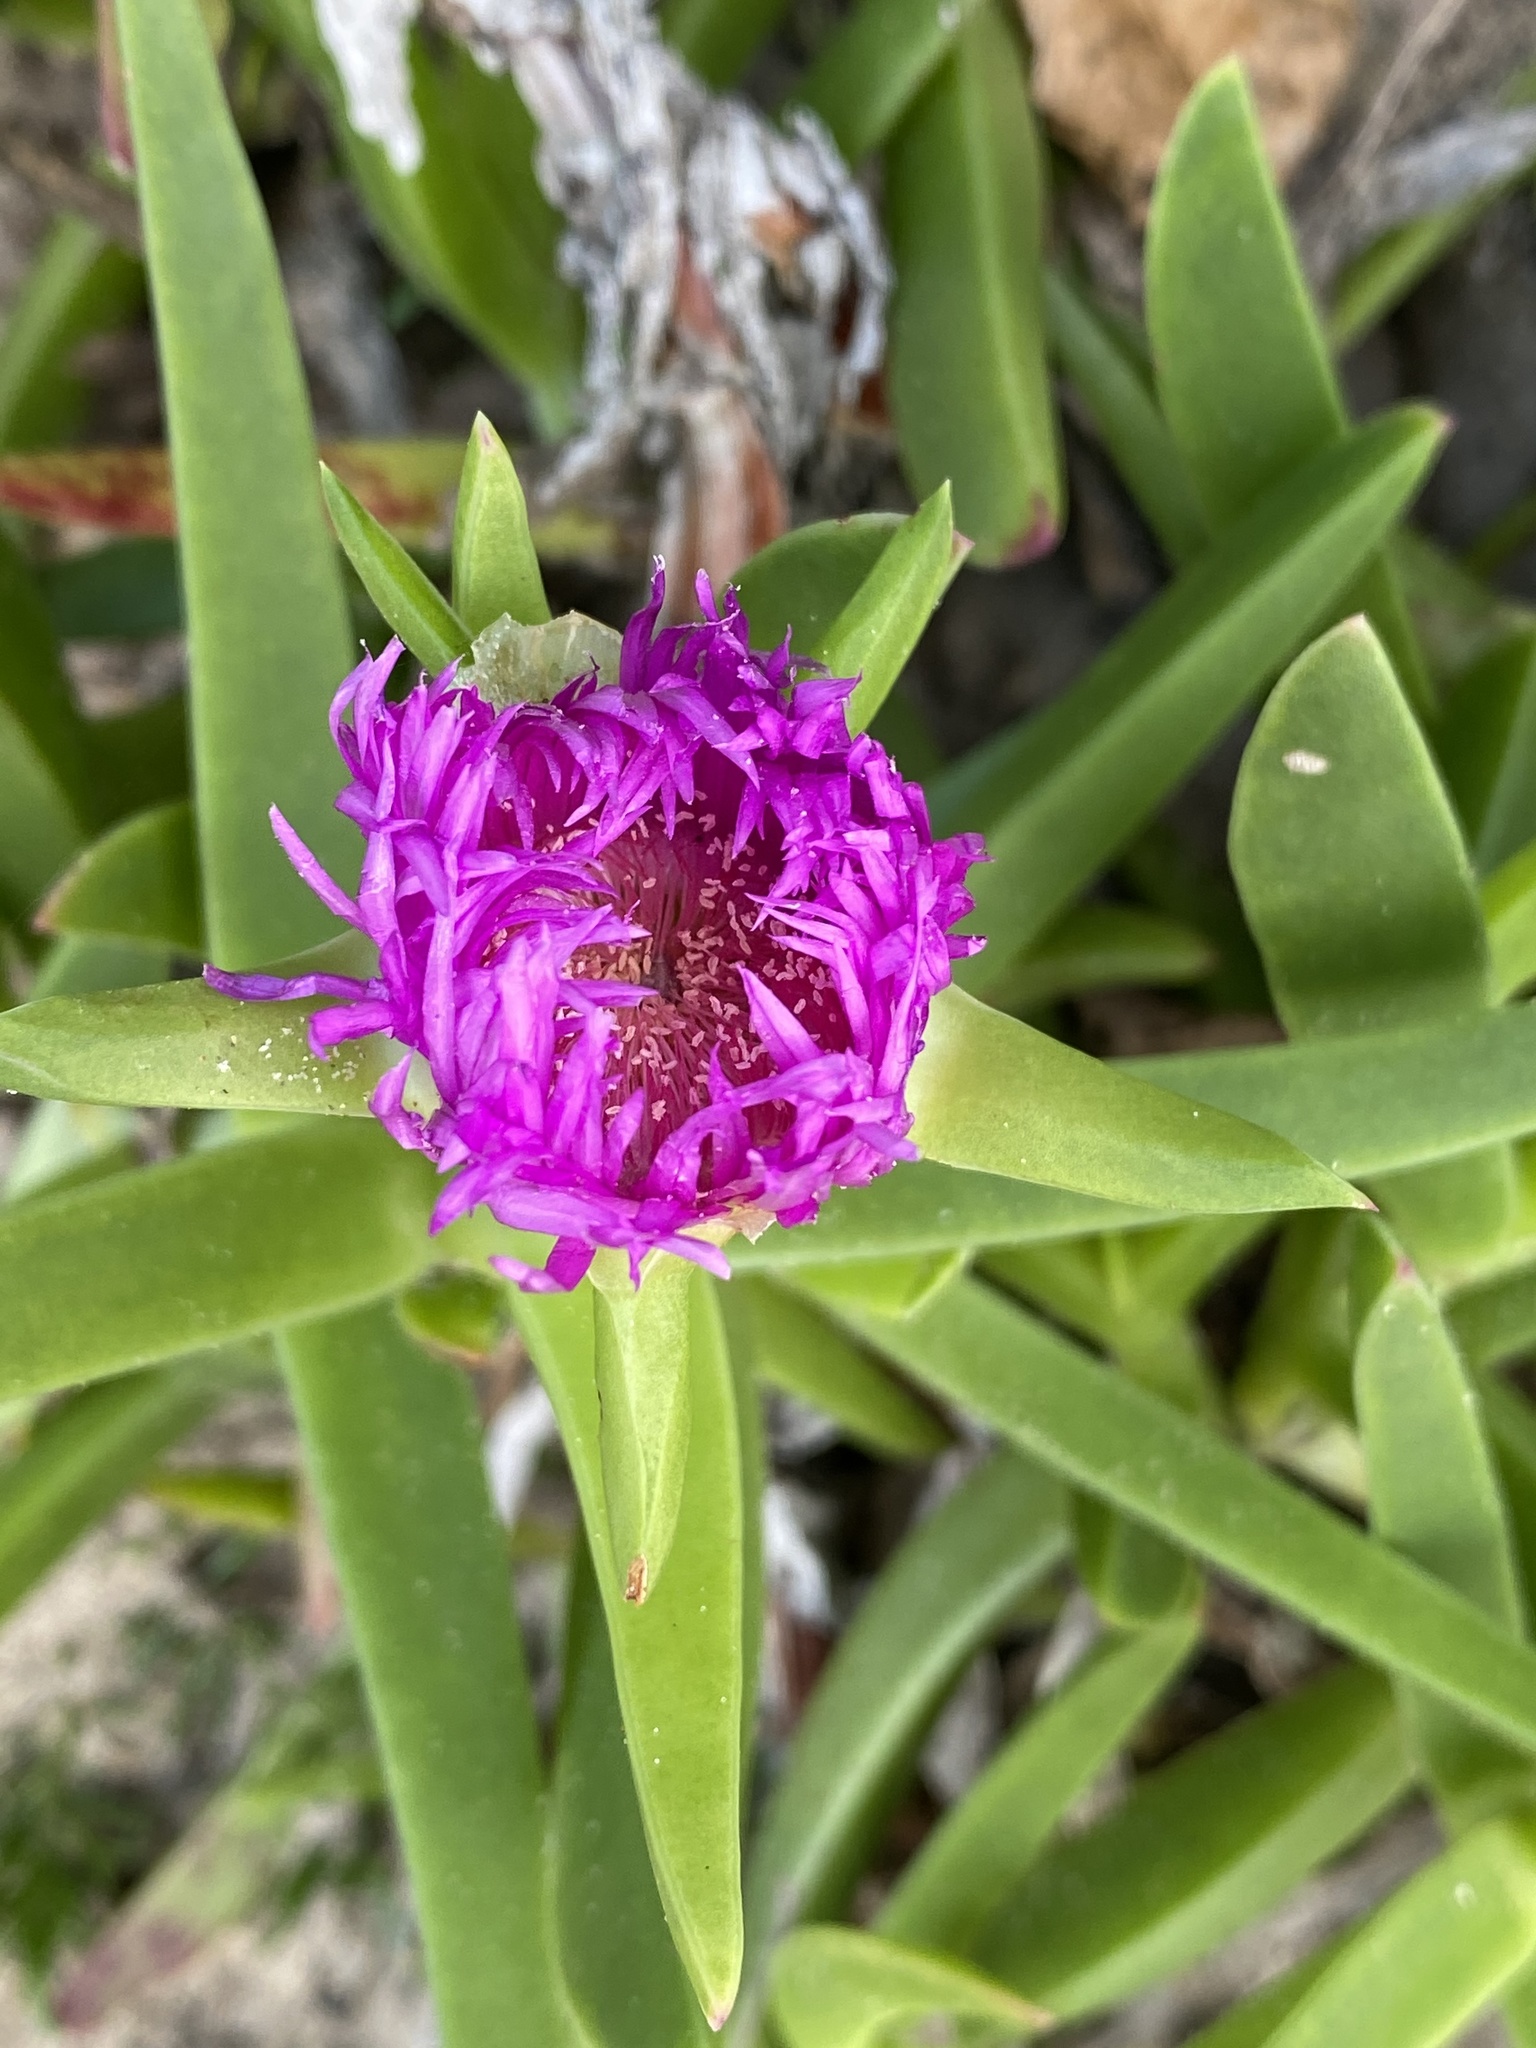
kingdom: Plantae
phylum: Tracheophyta
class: Magnoliopsida
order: Caryophyllales
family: Aizoaceae
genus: Carpobrotus
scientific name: Carpobrotus dimidiatus
